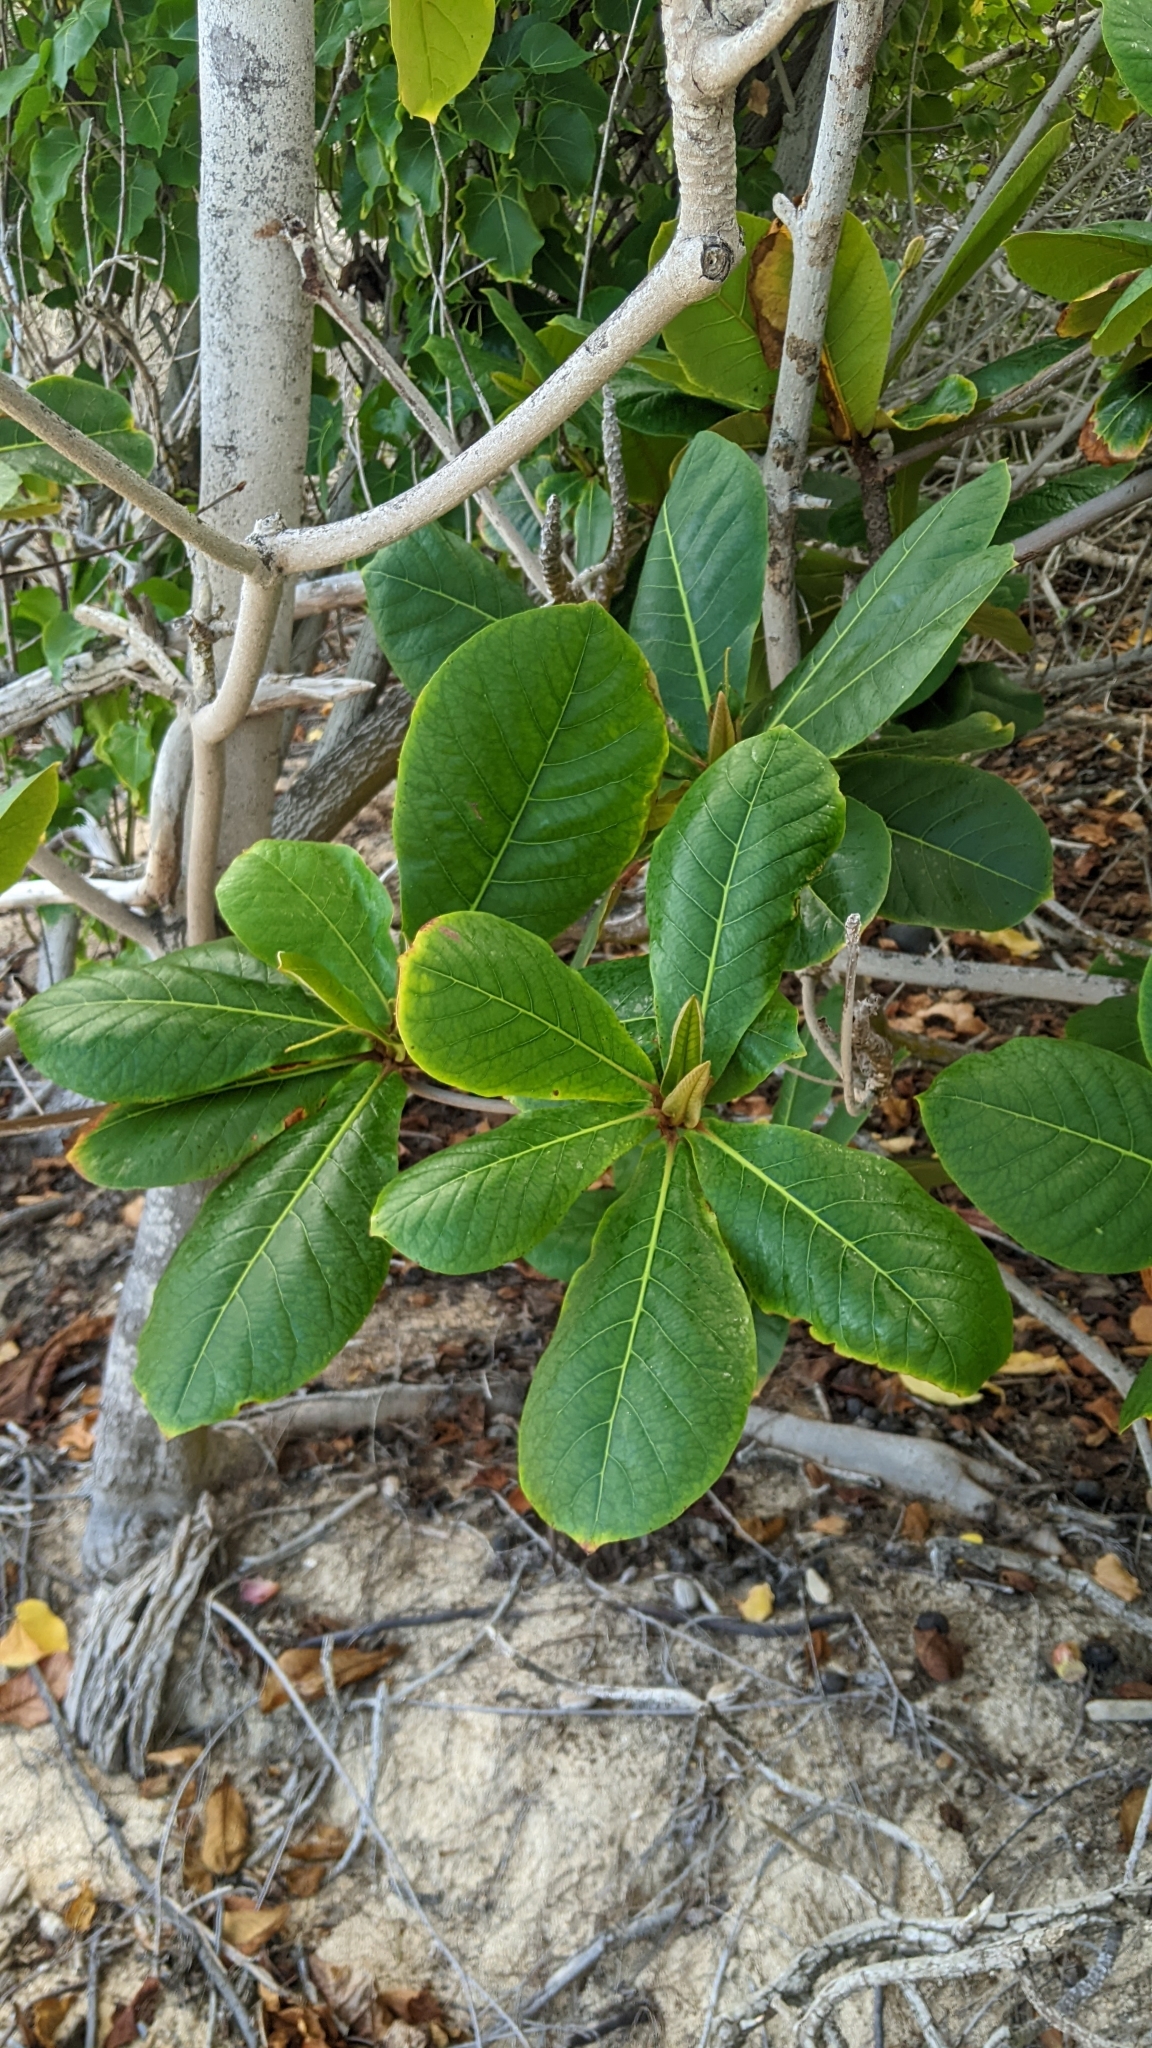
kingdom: Plantae
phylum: Tracheophyta
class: Magnoliopsida
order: Myrtales
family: Combretaceae
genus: Terminalia
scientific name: Terminalia catappa
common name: Tropical almond
